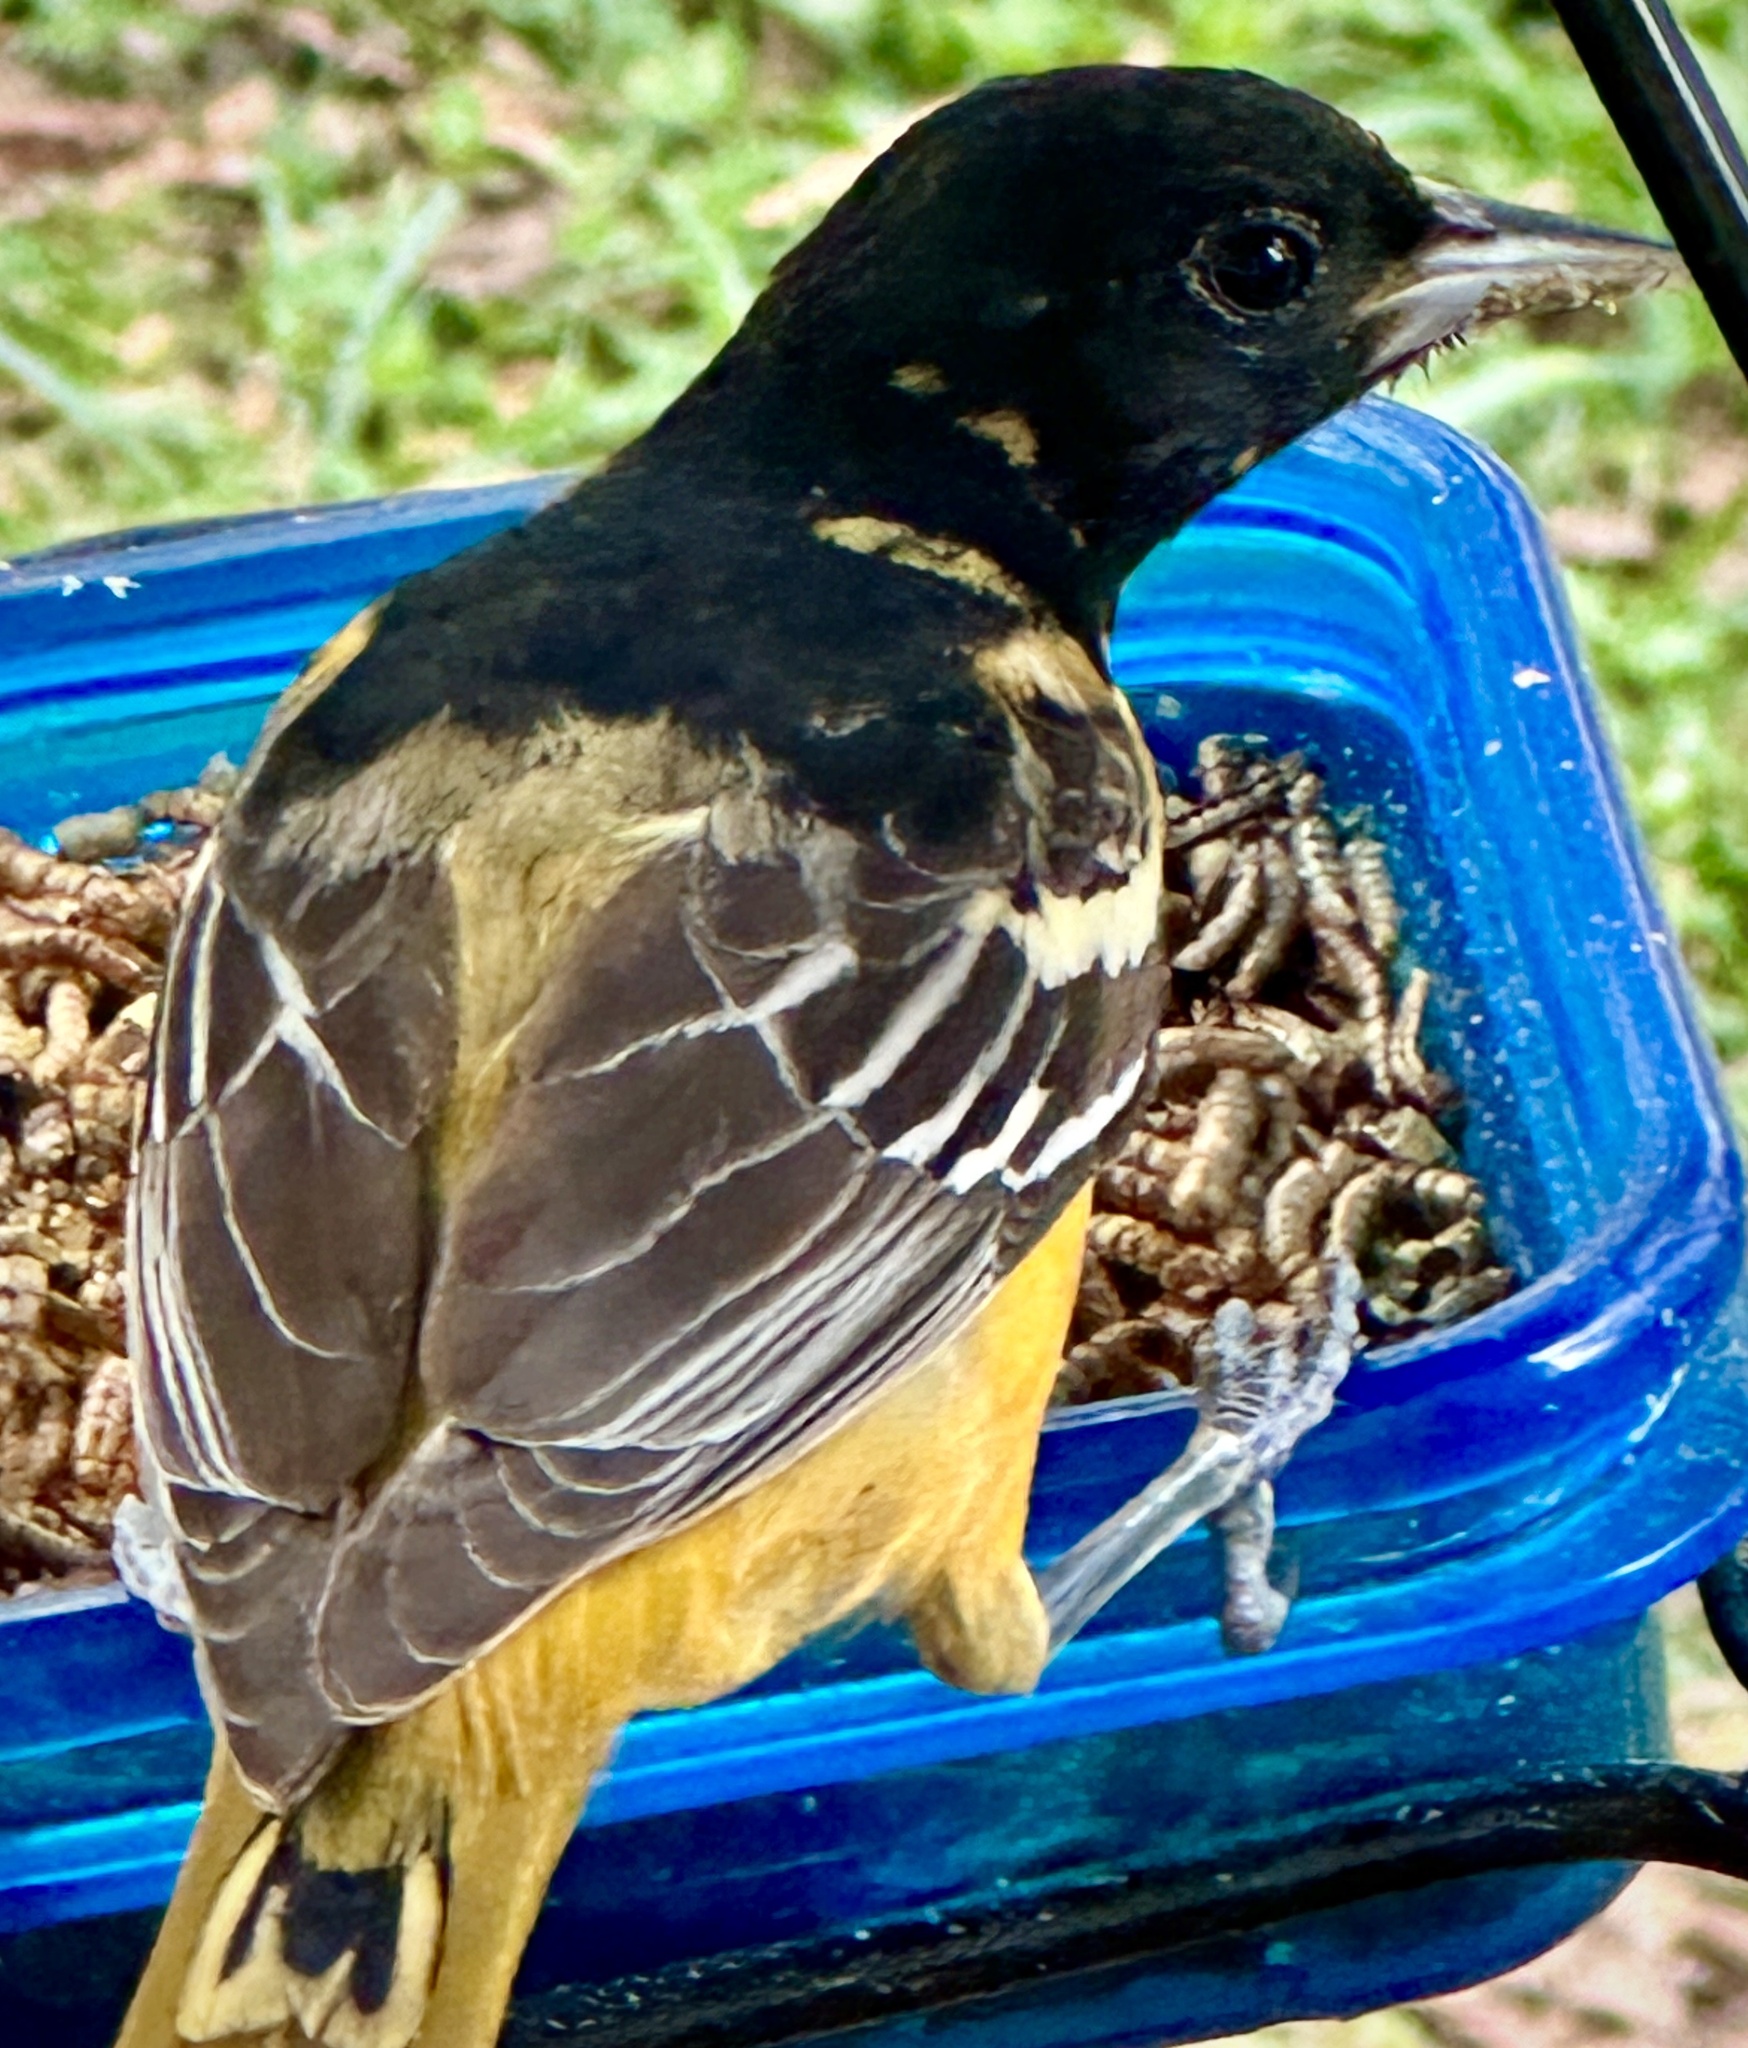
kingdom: Animalia
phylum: Chordata
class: Aves
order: Passeriformes
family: Icteridae
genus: Icterus
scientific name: Icterus galbula
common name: Baltimore oriole
